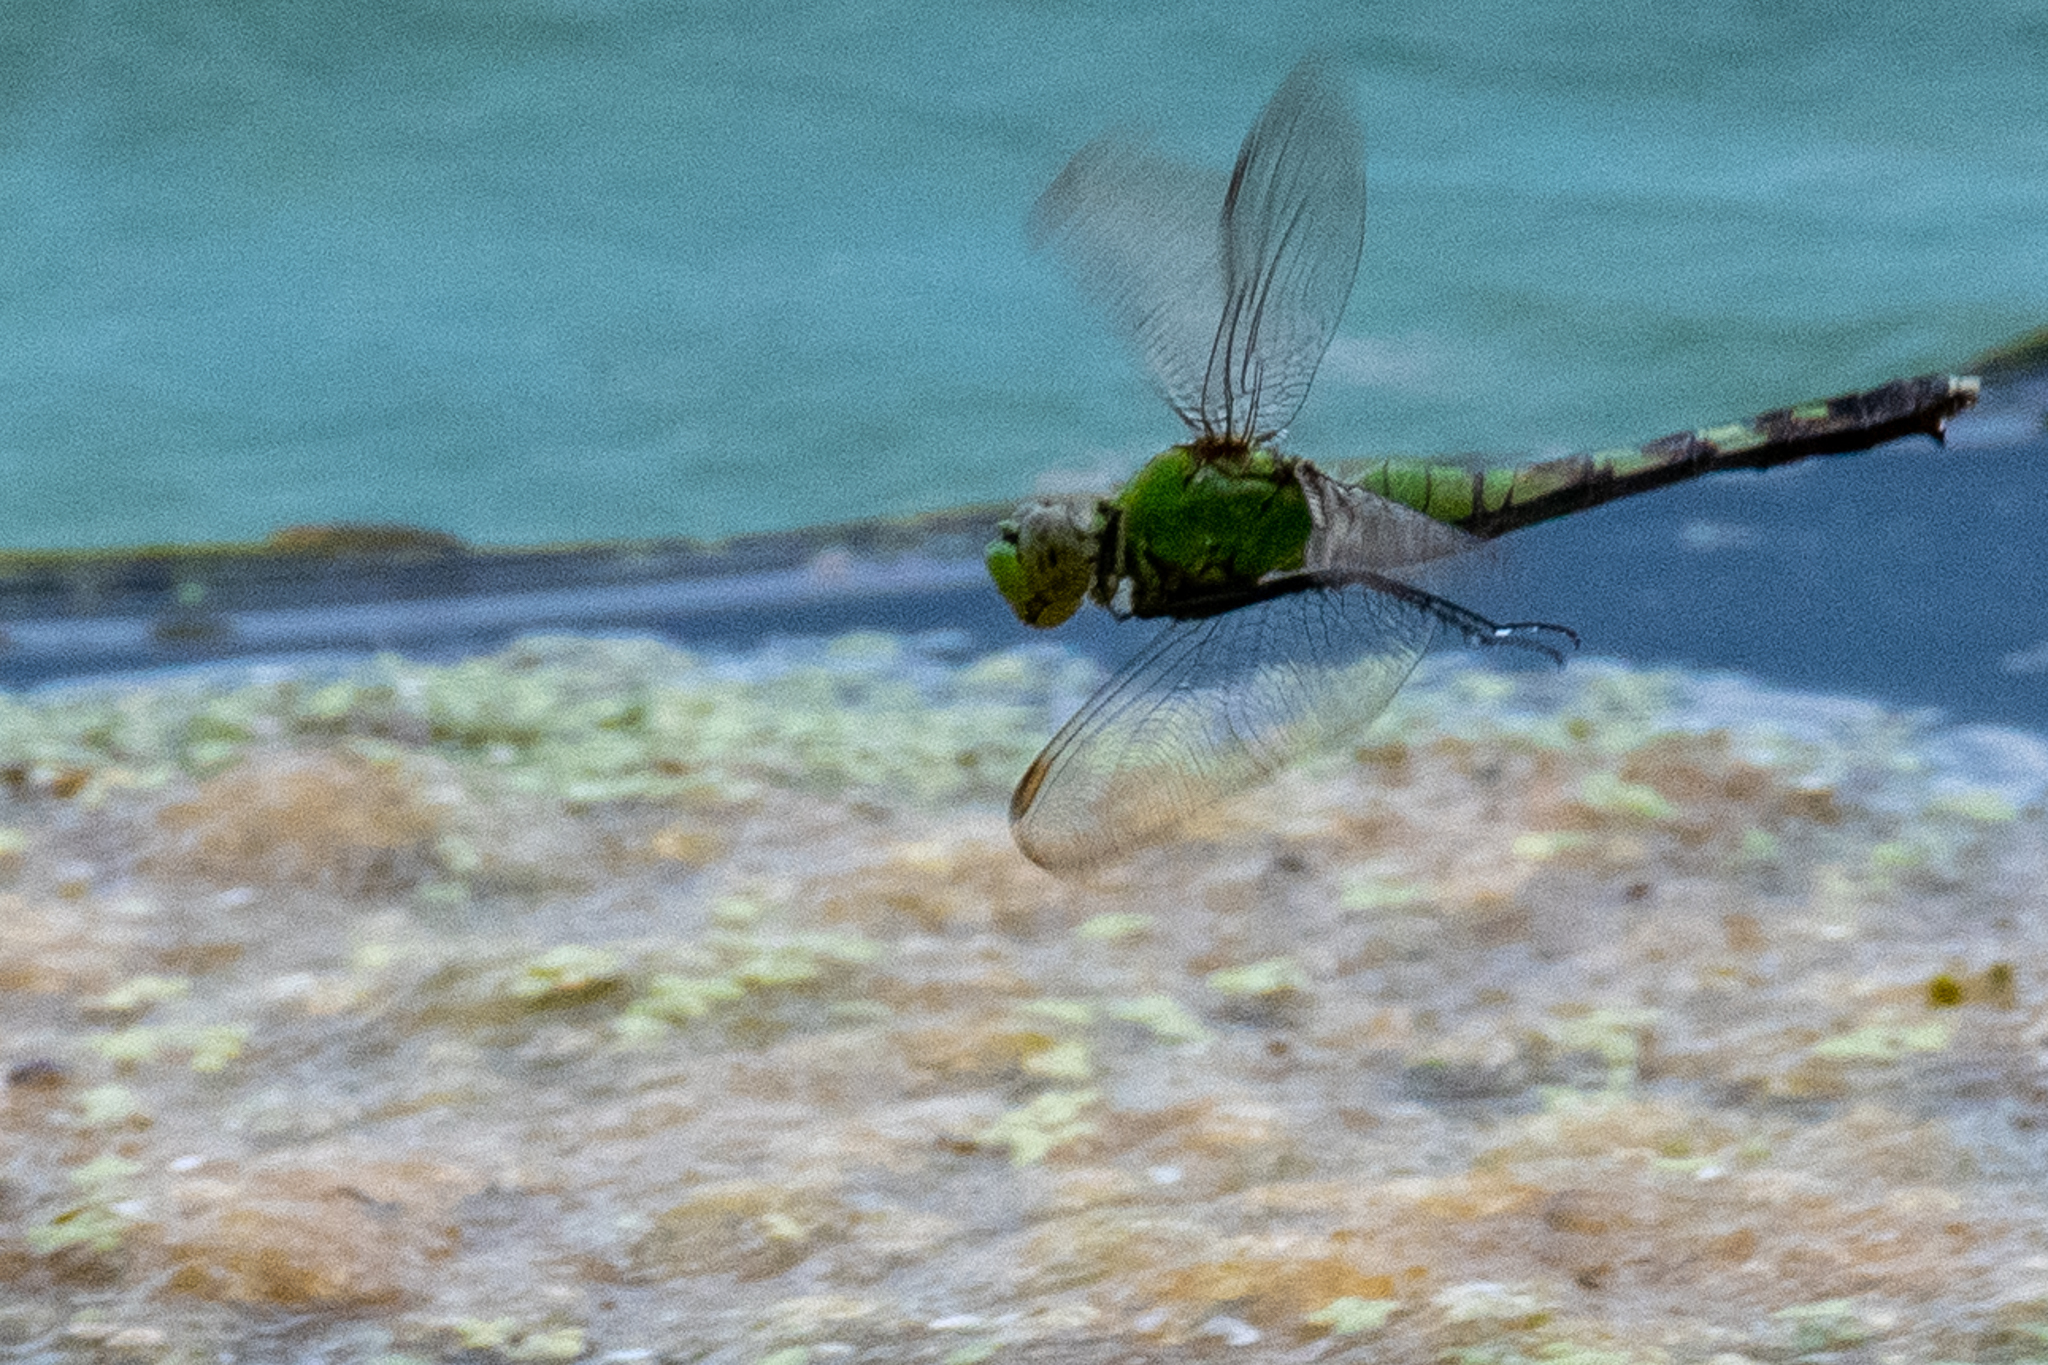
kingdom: Animalia
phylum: Arthropoda
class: Insecta
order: Odonata
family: Libellulidae
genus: Erythemis
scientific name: Erythemis simplicicollis
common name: Eastern pondhawk
